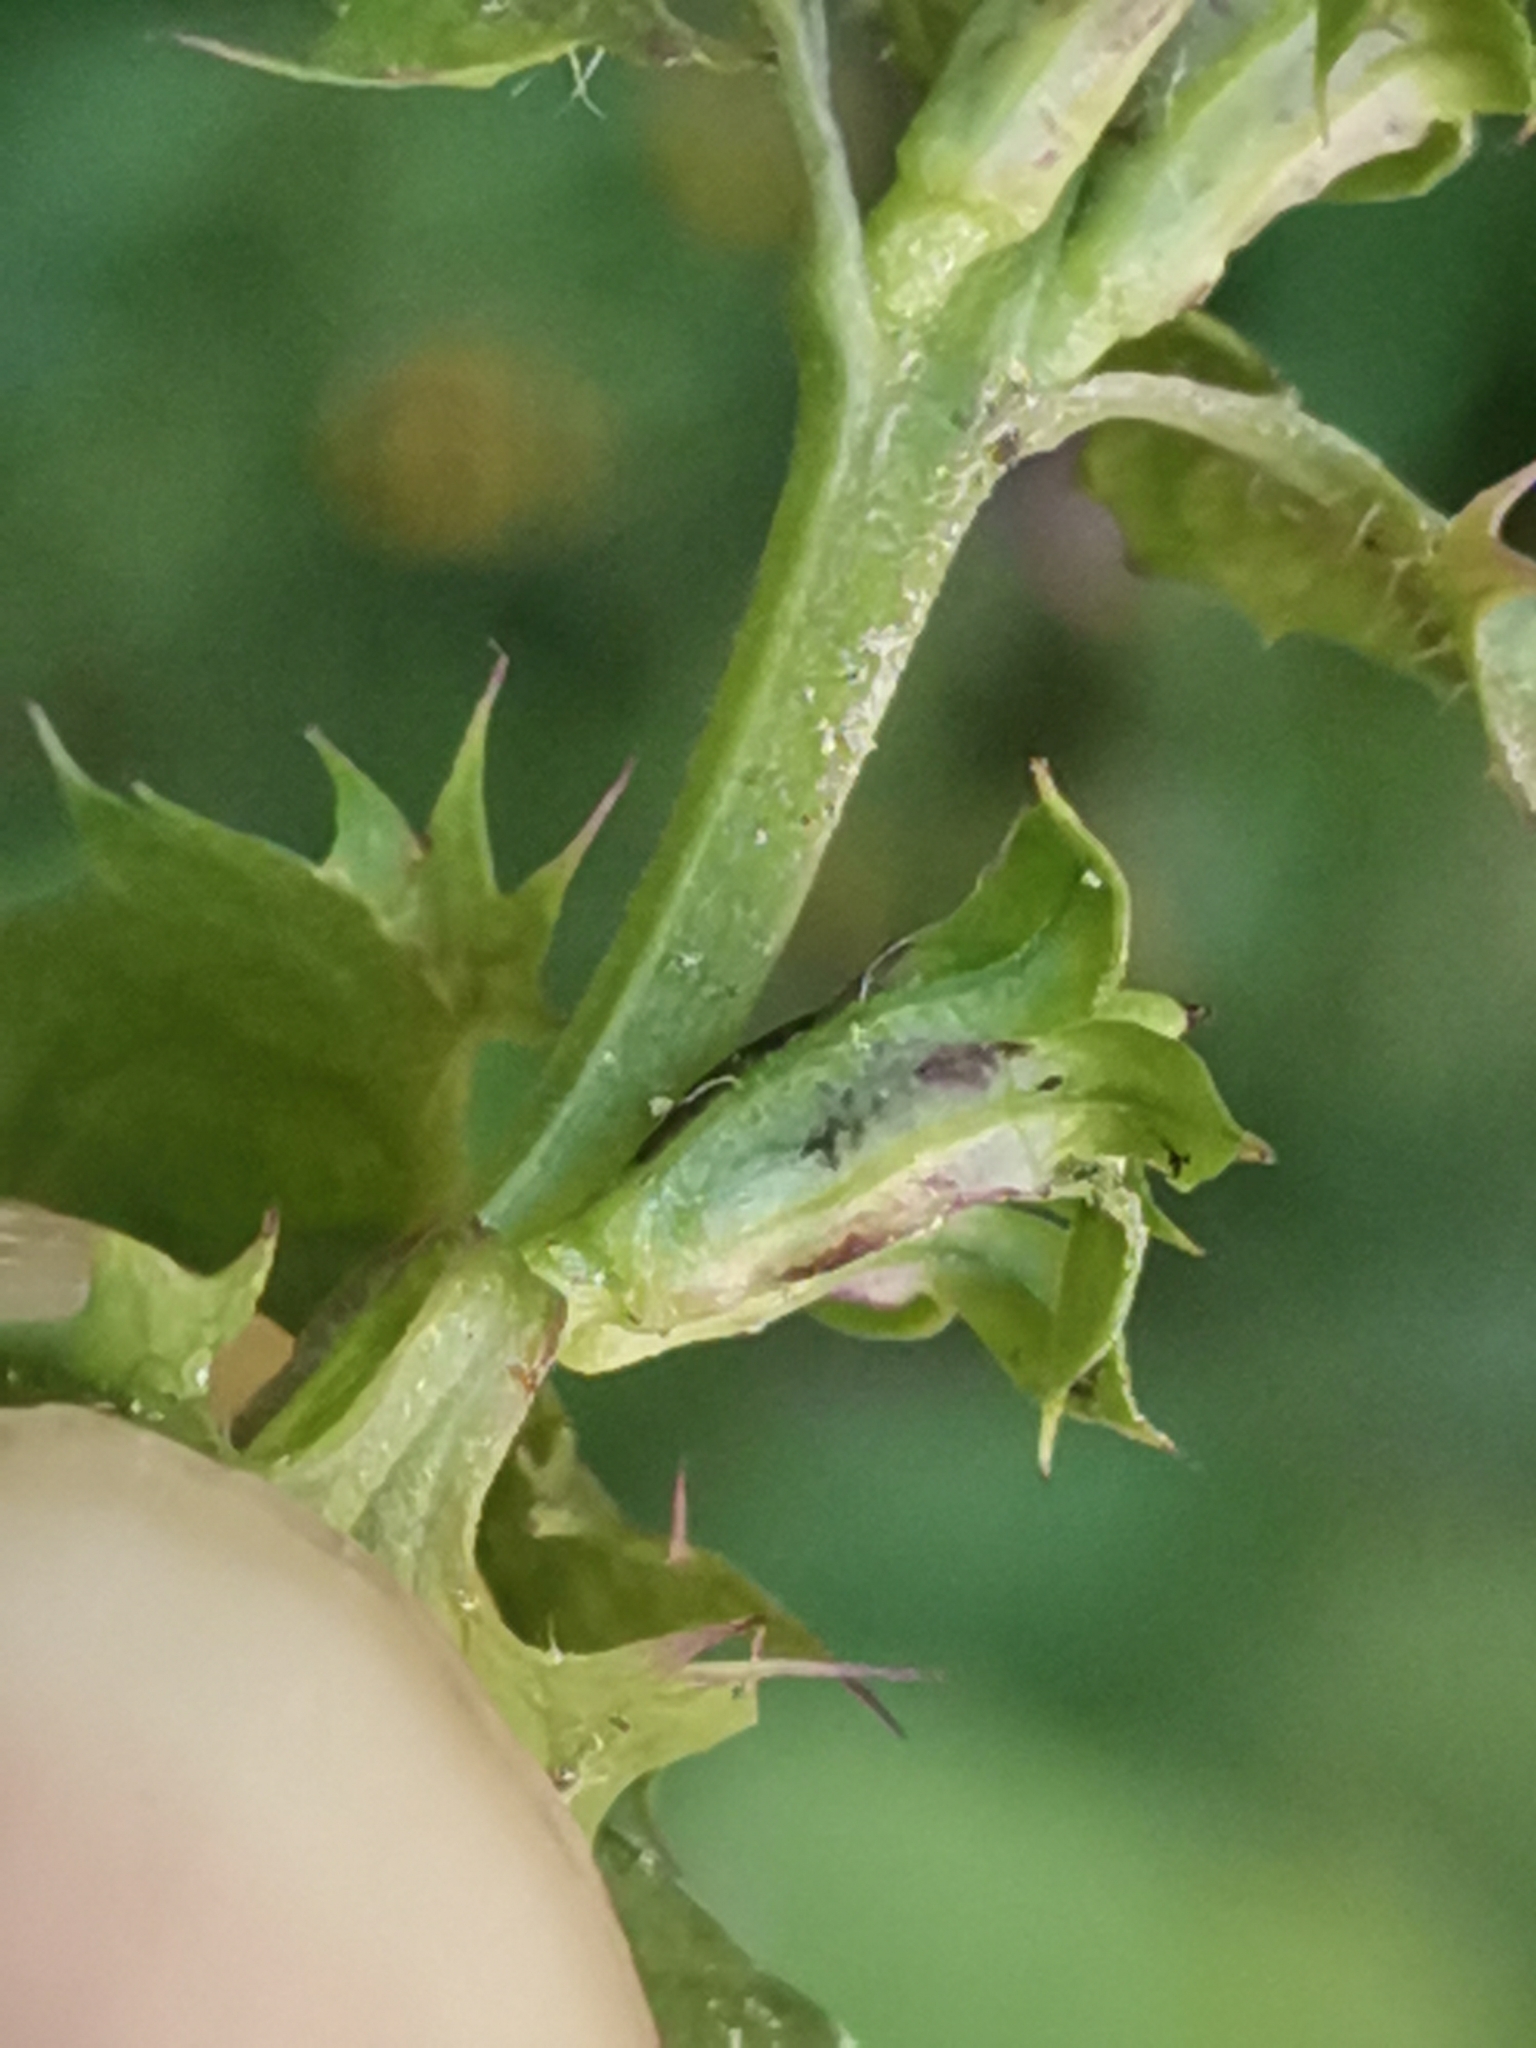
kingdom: Plantae
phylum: Tracheophyta
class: Magnoliopsida
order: Lamiales
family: Orobanchaceae
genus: Melampyrum
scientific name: Melampyrum nemorosum
